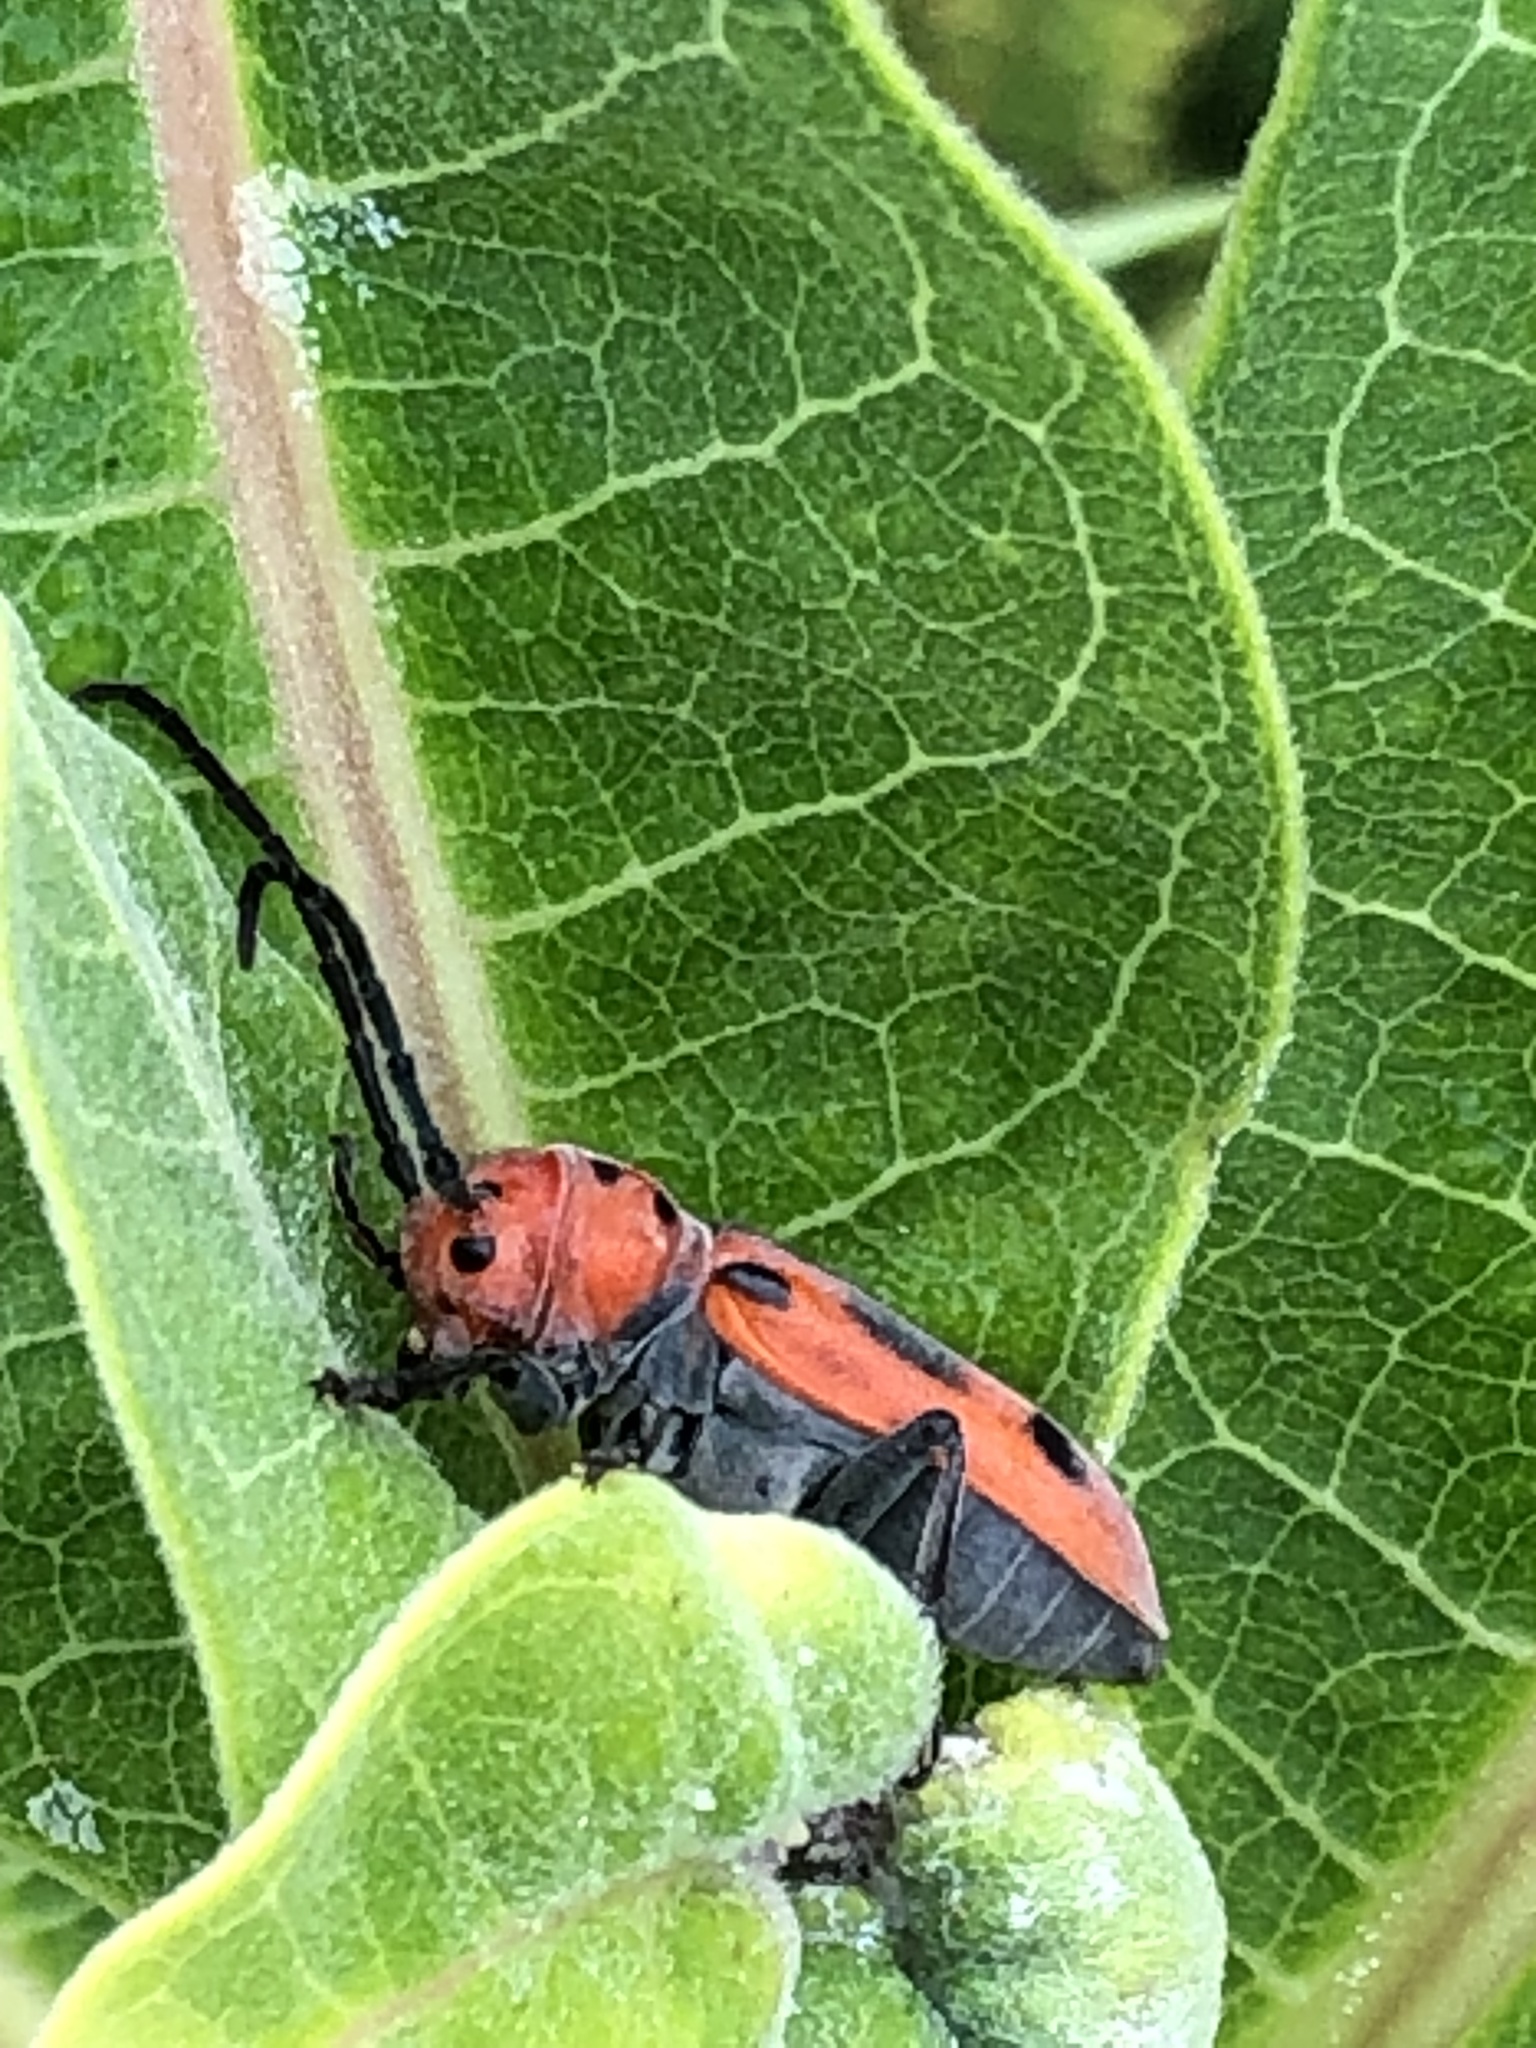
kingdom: Animalia
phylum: Arthropoda
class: Insecta
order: Coleoptera
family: Cerambycidae
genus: Tetraopes
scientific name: Tetraopes tetrophthalmus
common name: Red milkweed beetle
